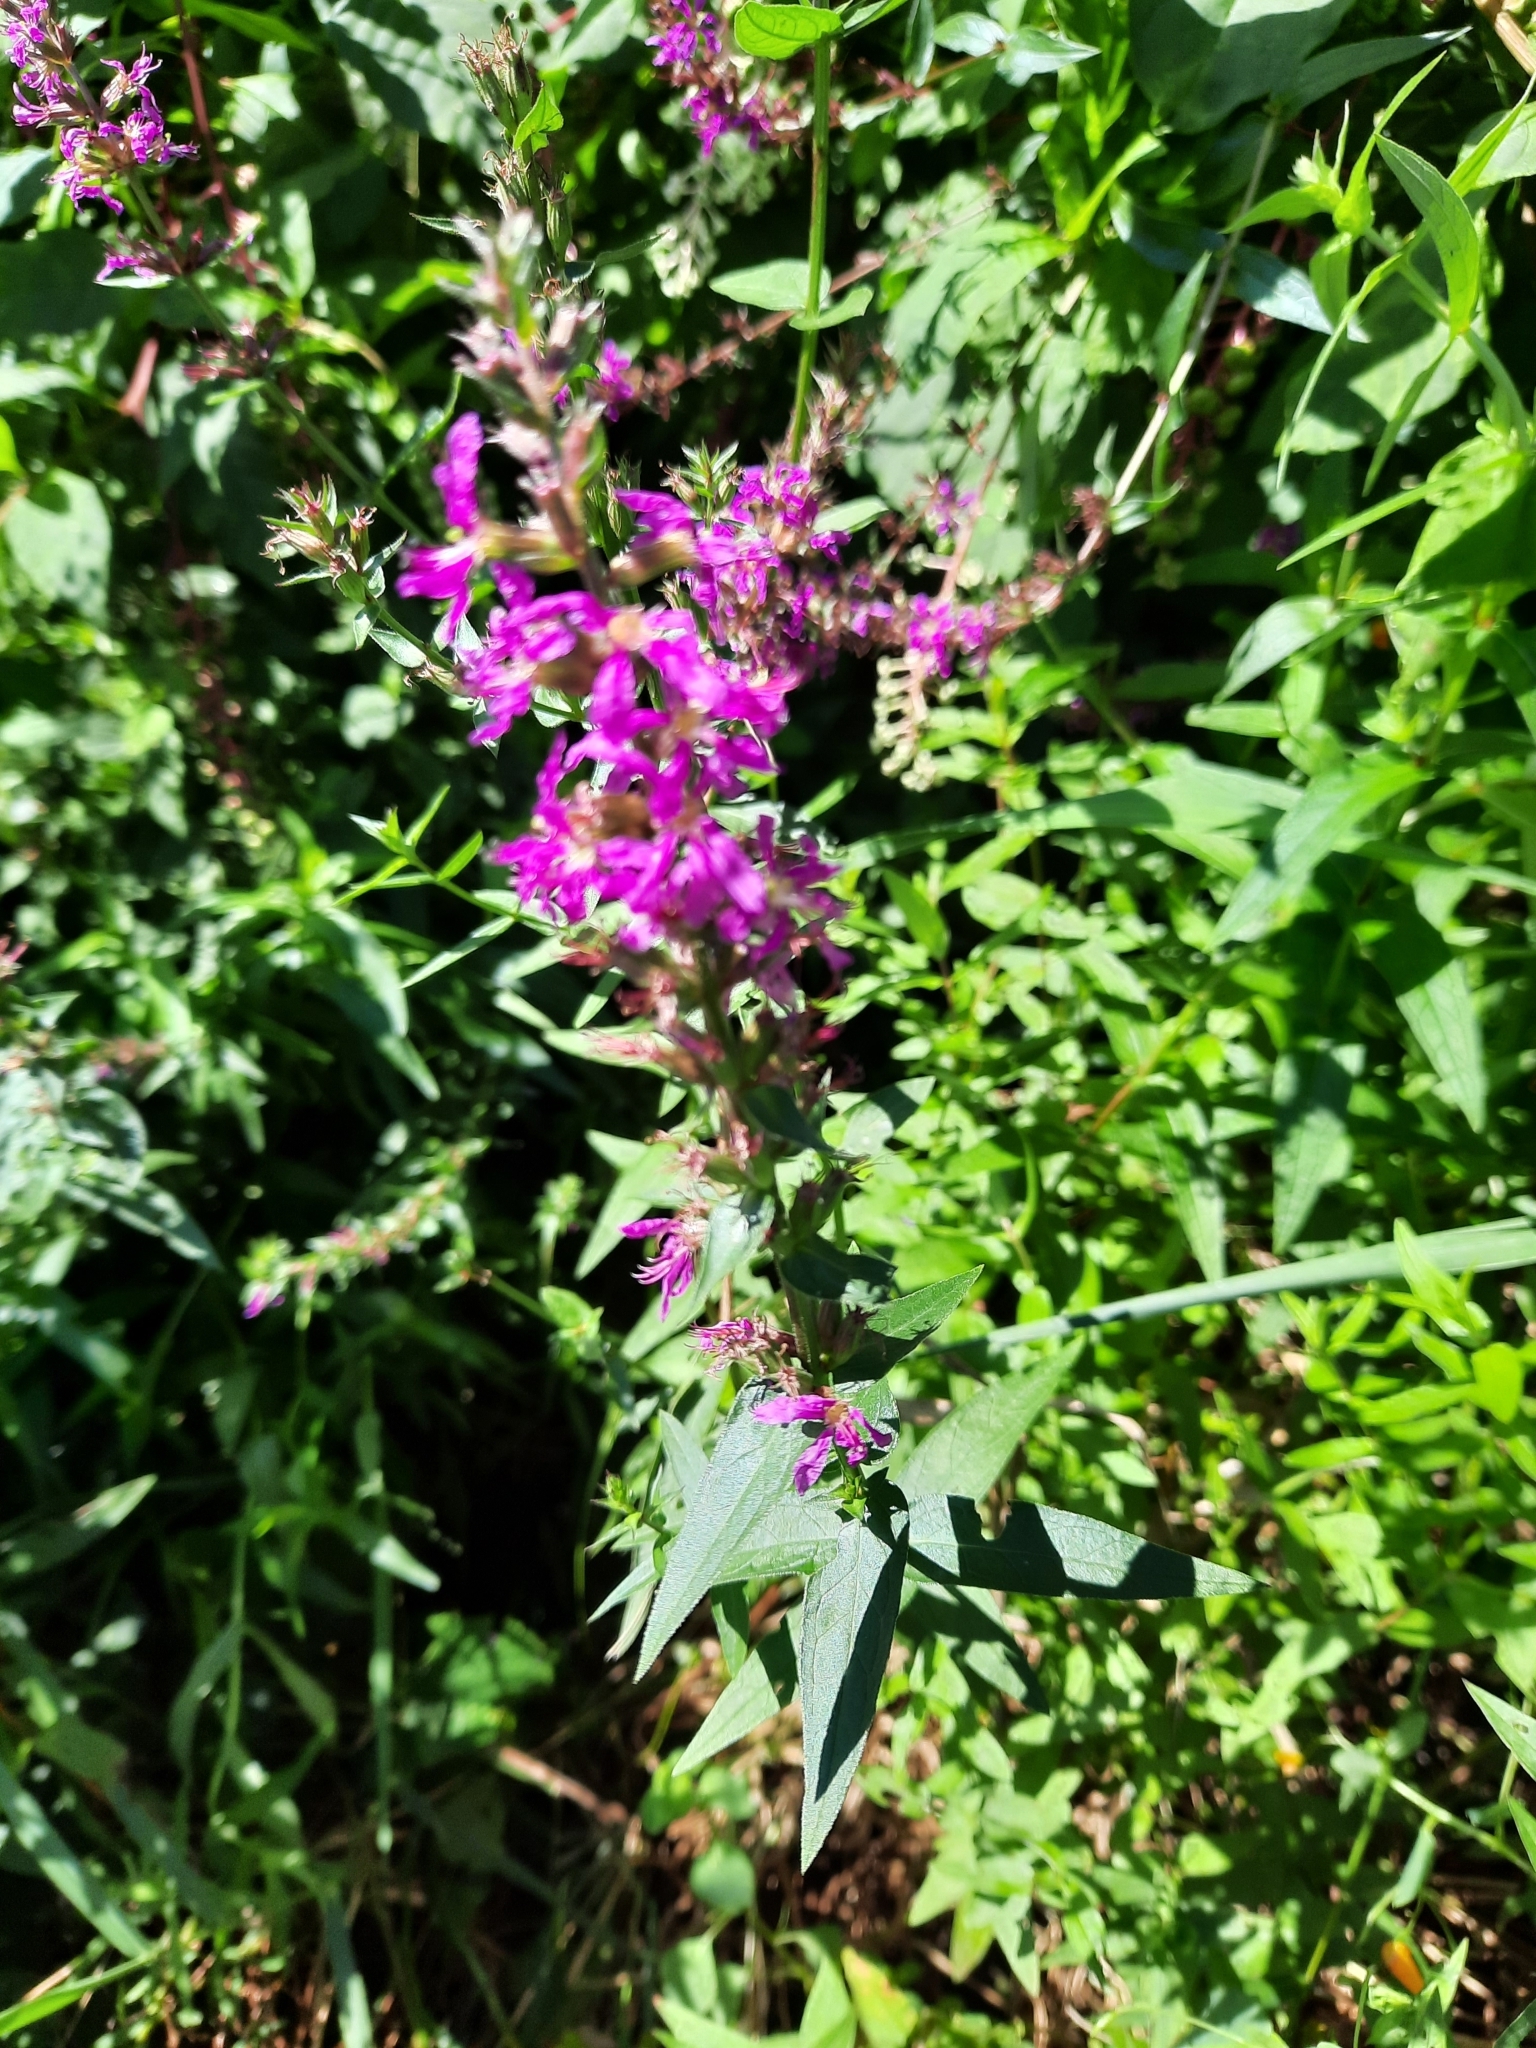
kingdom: Plantae
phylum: Tracheophyta
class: Magnoliopsida
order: Myrtales
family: Lythraceae
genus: Lythrum
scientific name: Lythrum salicaria
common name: Purple loosestrife
